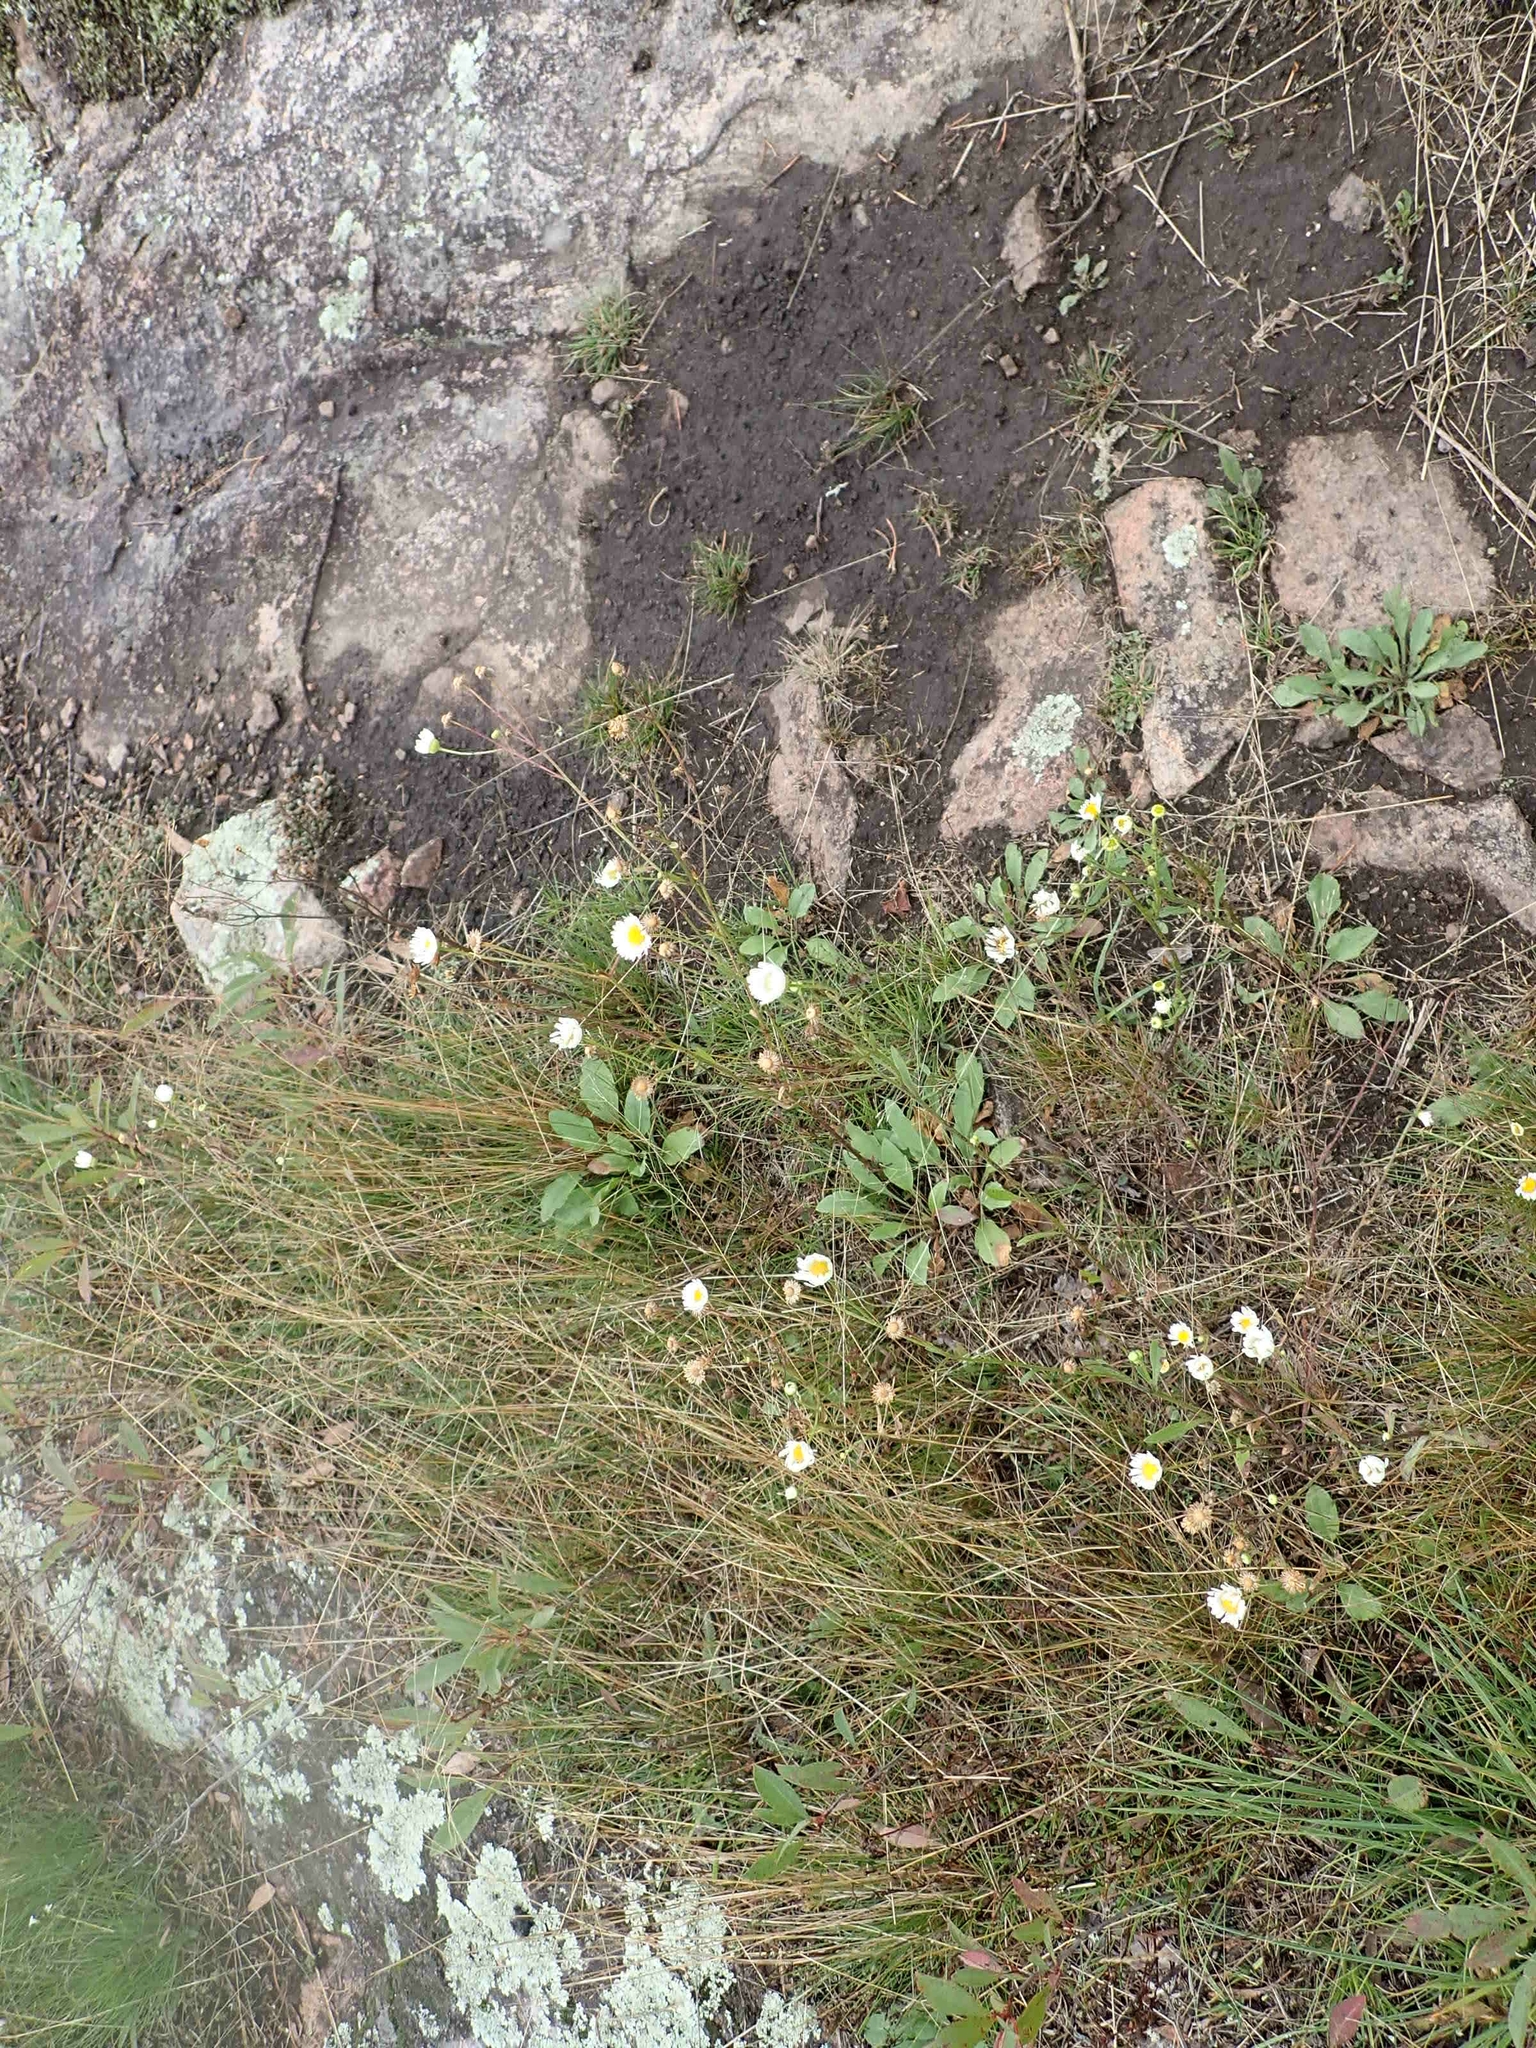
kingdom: Plantae
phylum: Tracheophyta
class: Magnoliopsida
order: Asterales
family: Asteraceae
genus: Erigeron
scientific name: Erigeron strigosus
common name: Common eastern fleabane
